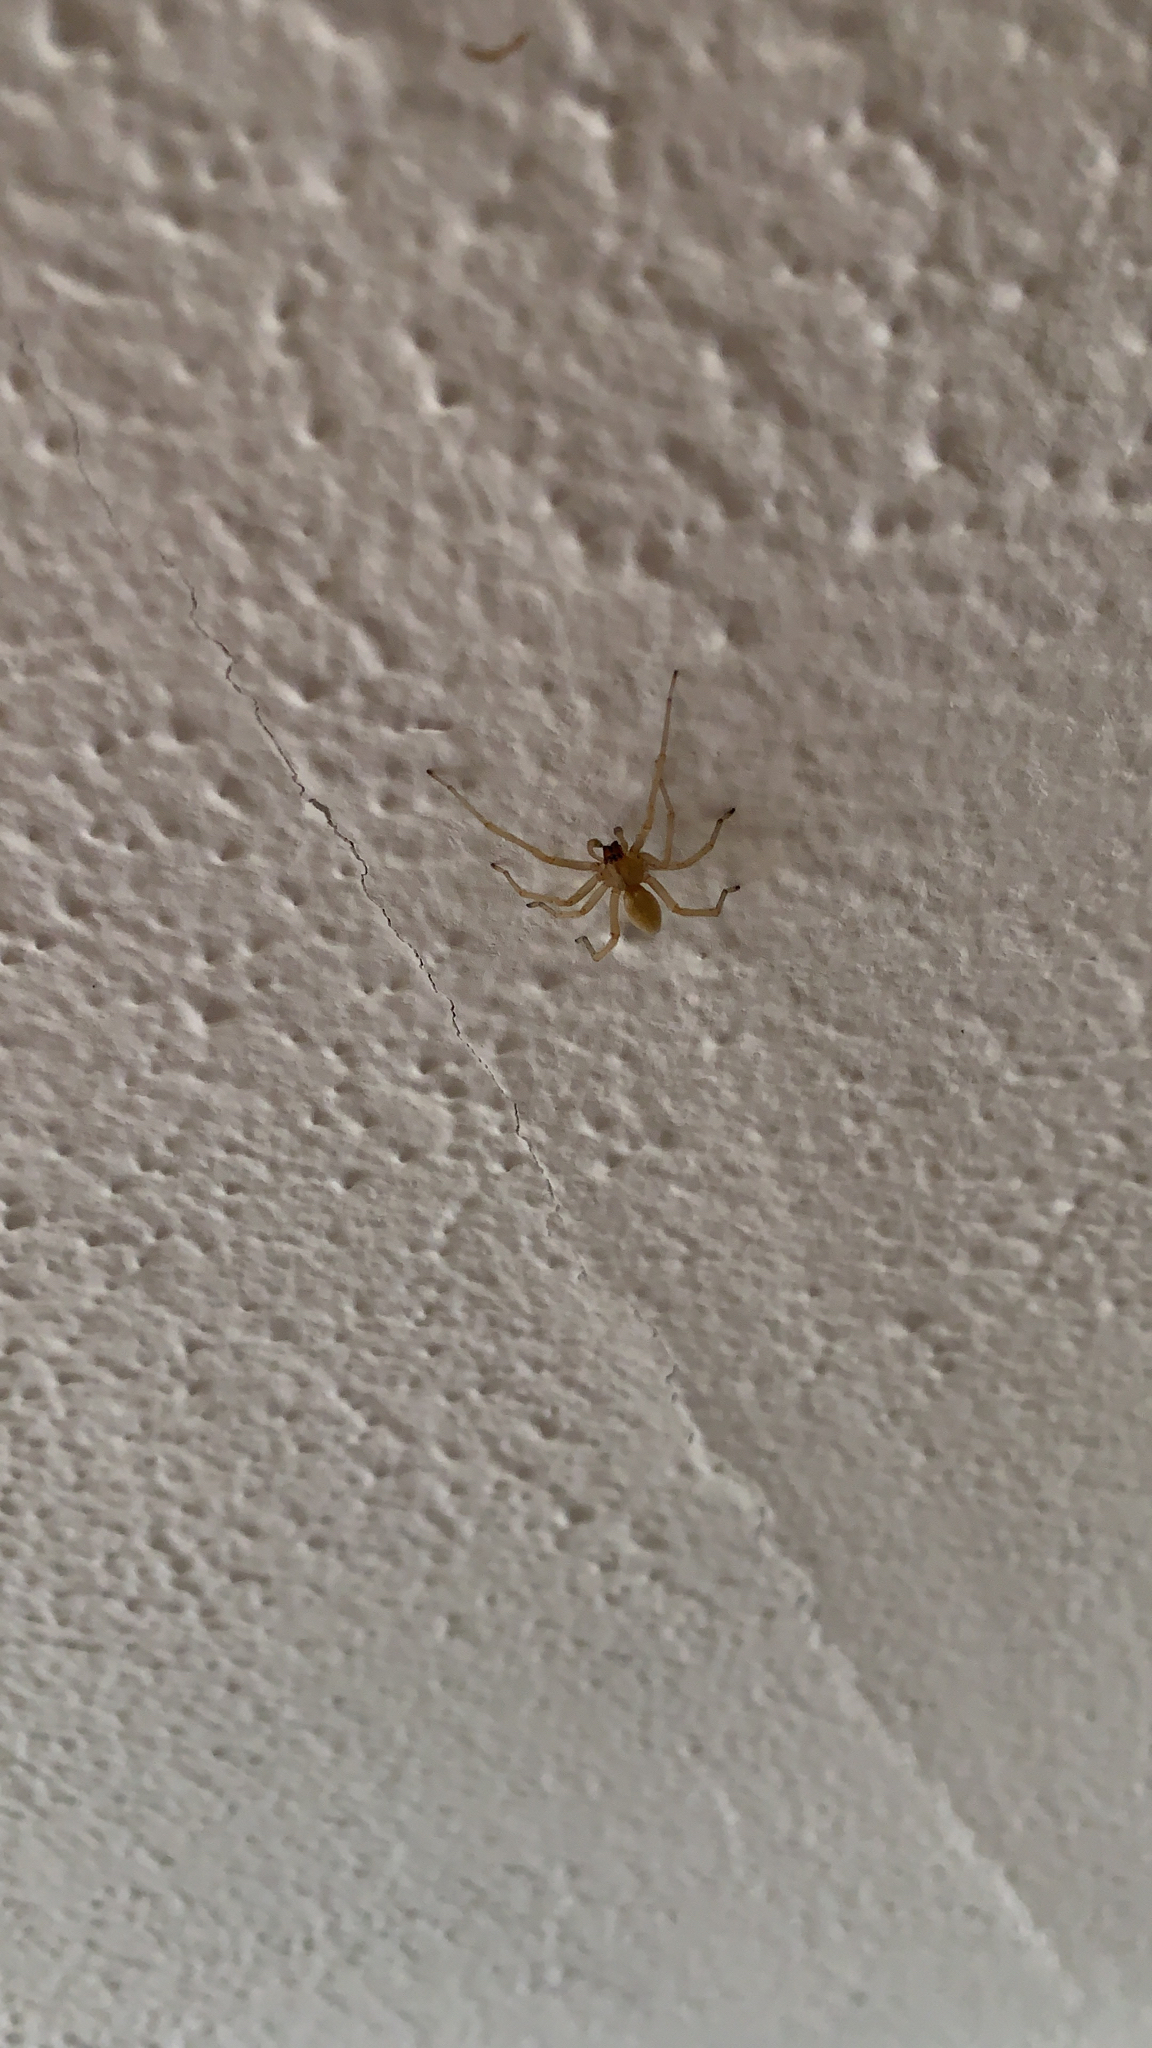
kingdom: Animalia
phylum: Arthropoda
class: Arachnida
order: Araneae
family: Cheiracanthiidae
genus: Cheiracanthium
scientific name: Cheiracanthium mildei
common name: Northern yellow sac spider
